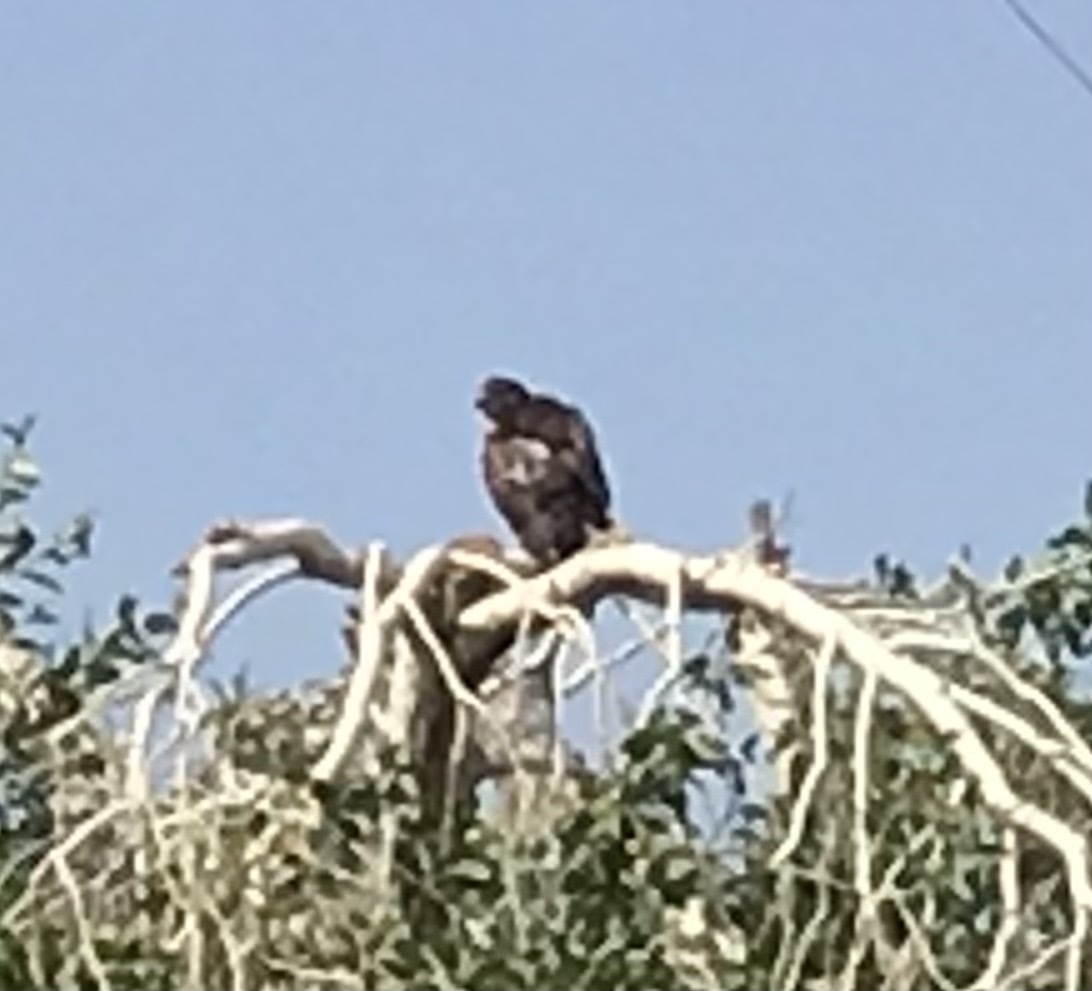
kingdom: Animalia
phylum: Chordata
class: Aves
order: Accipitriformes
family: Accipitridae
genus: Buteo
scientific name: Buteo jamaicensis
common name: Red-tailed hawk
